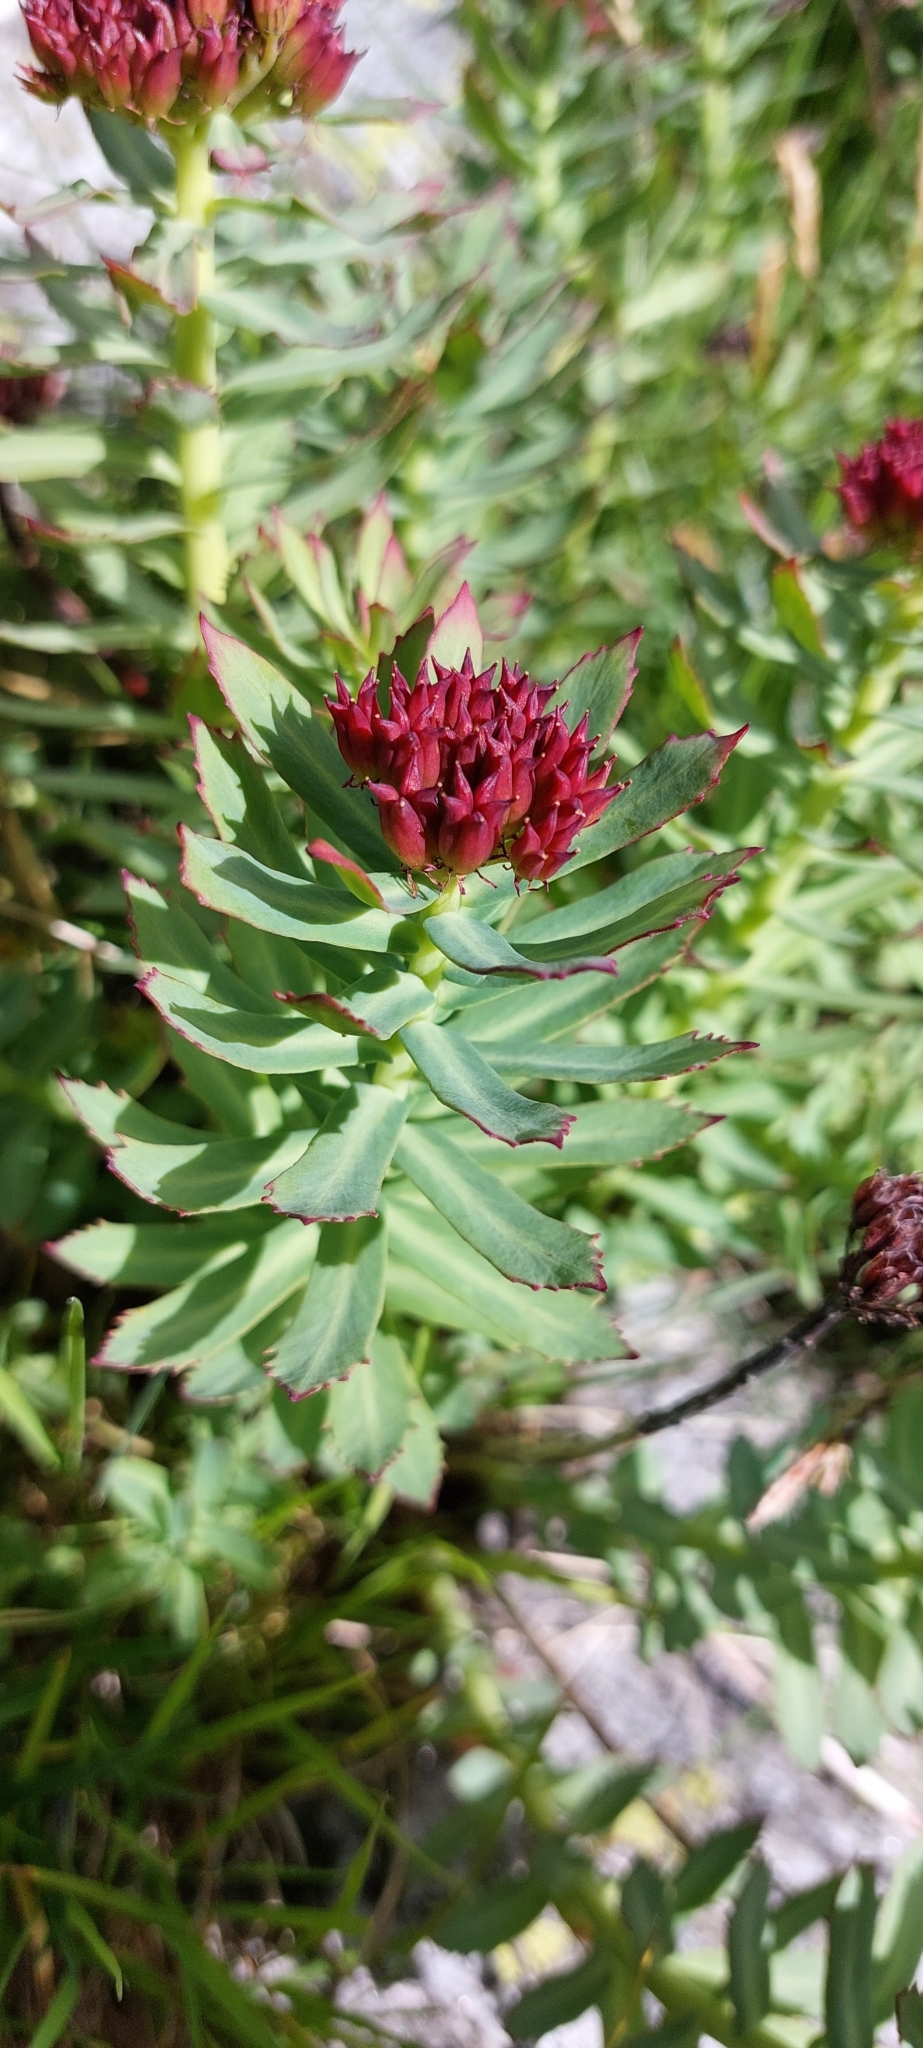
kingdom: Plantae
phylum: Tracheophyta
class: Magnoliopsida
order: Saxifragales
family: Crassulaceae
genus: Rhodiola
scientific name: Rhodiola rosea
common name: Roseroot
